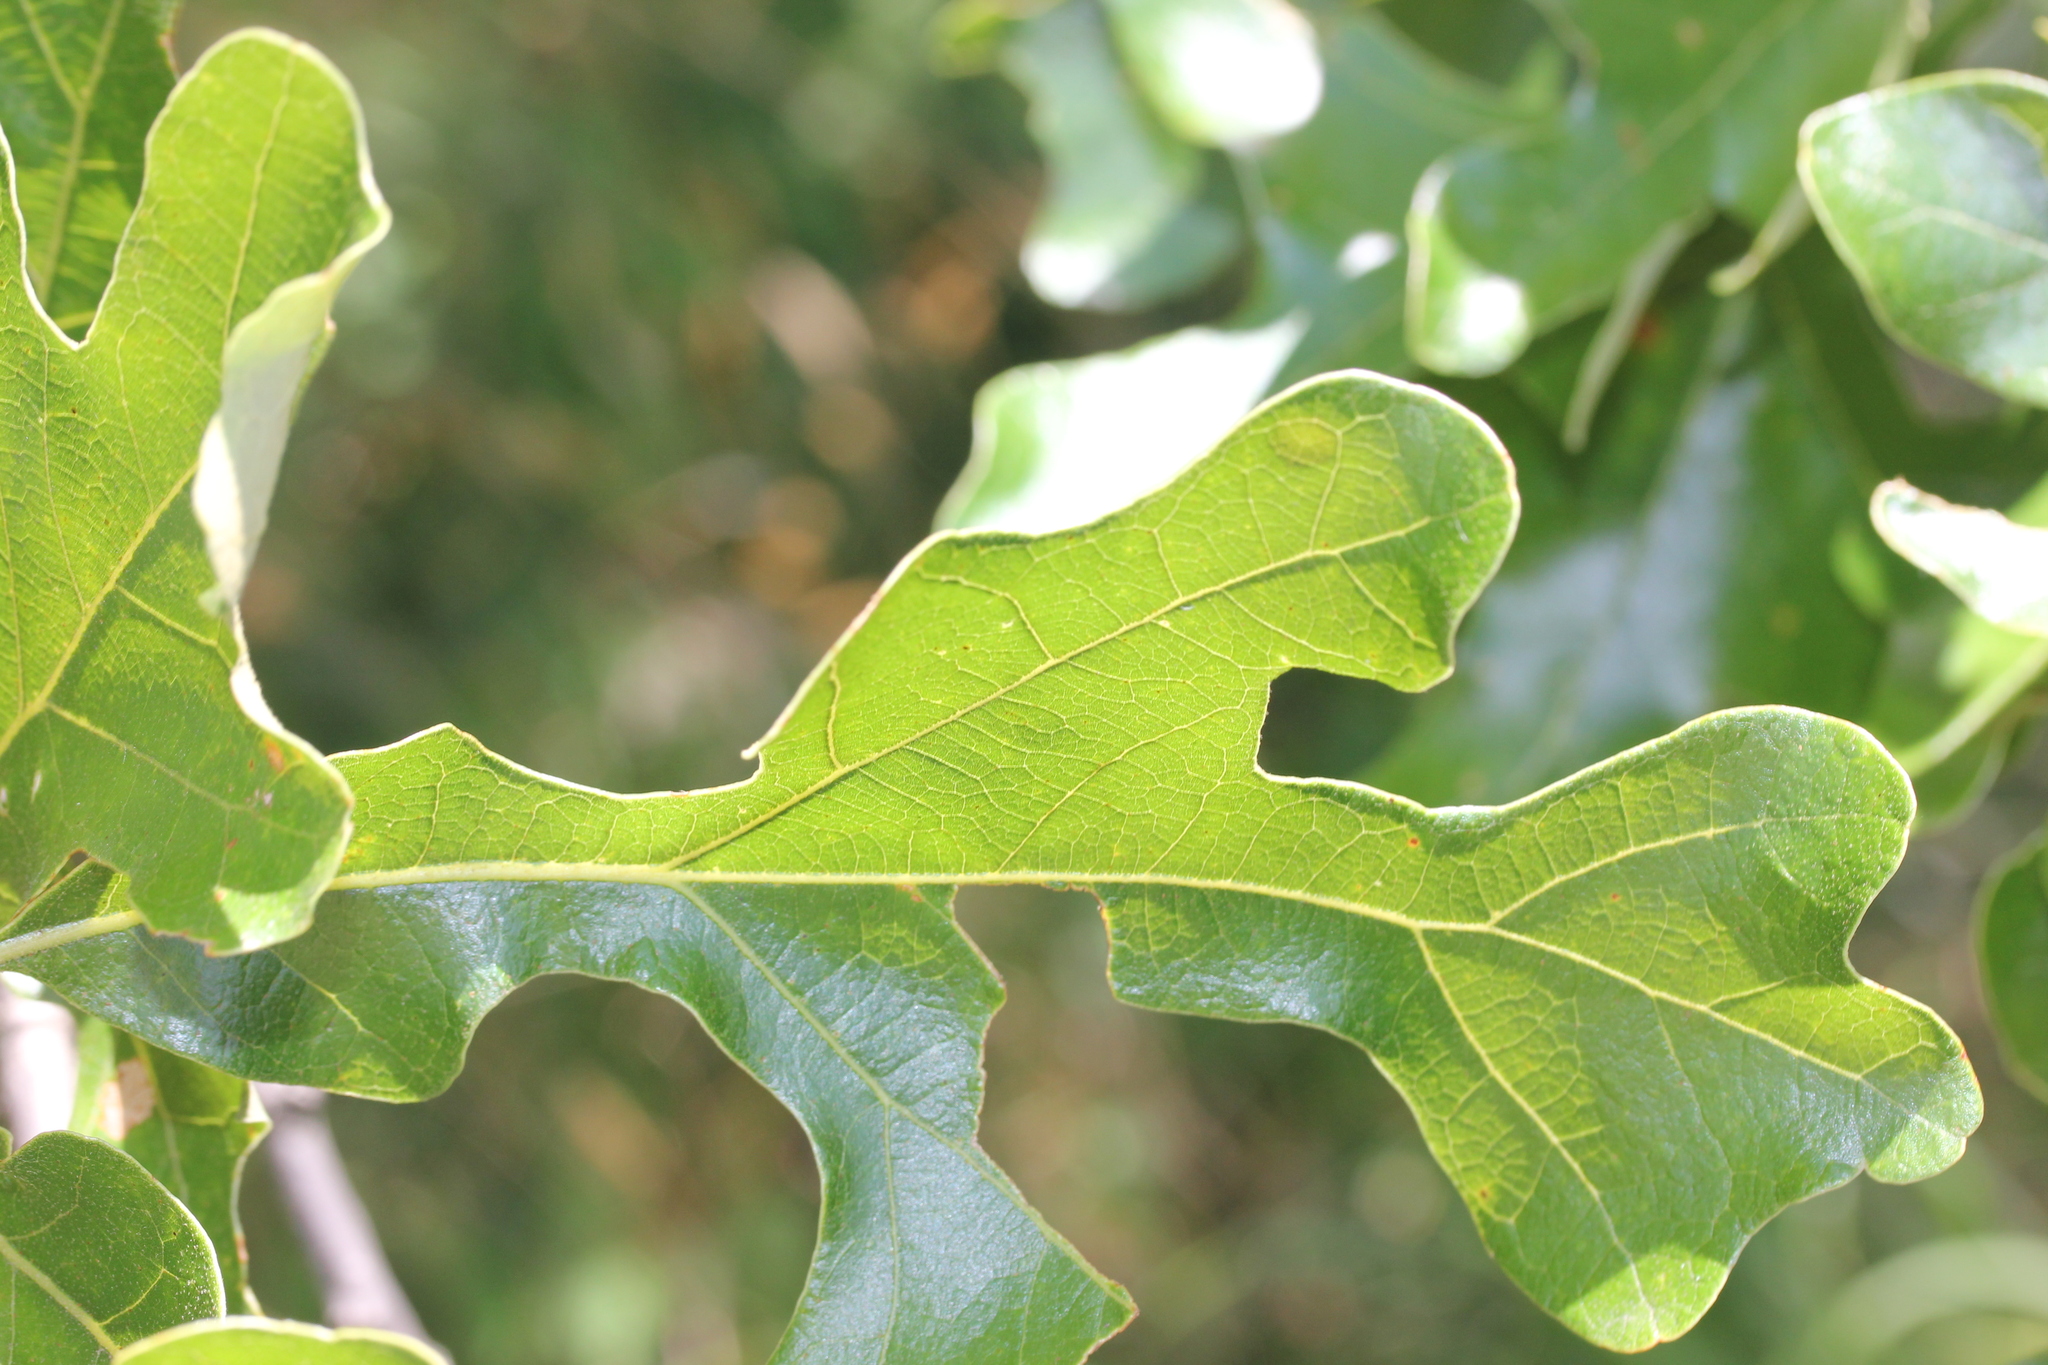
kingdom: Plantae
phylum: Tracheophyta
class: Magnoliopsida
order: Fagales
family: Fagaceae
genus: Quercus
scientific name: Quercus stellata
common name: Post oak
